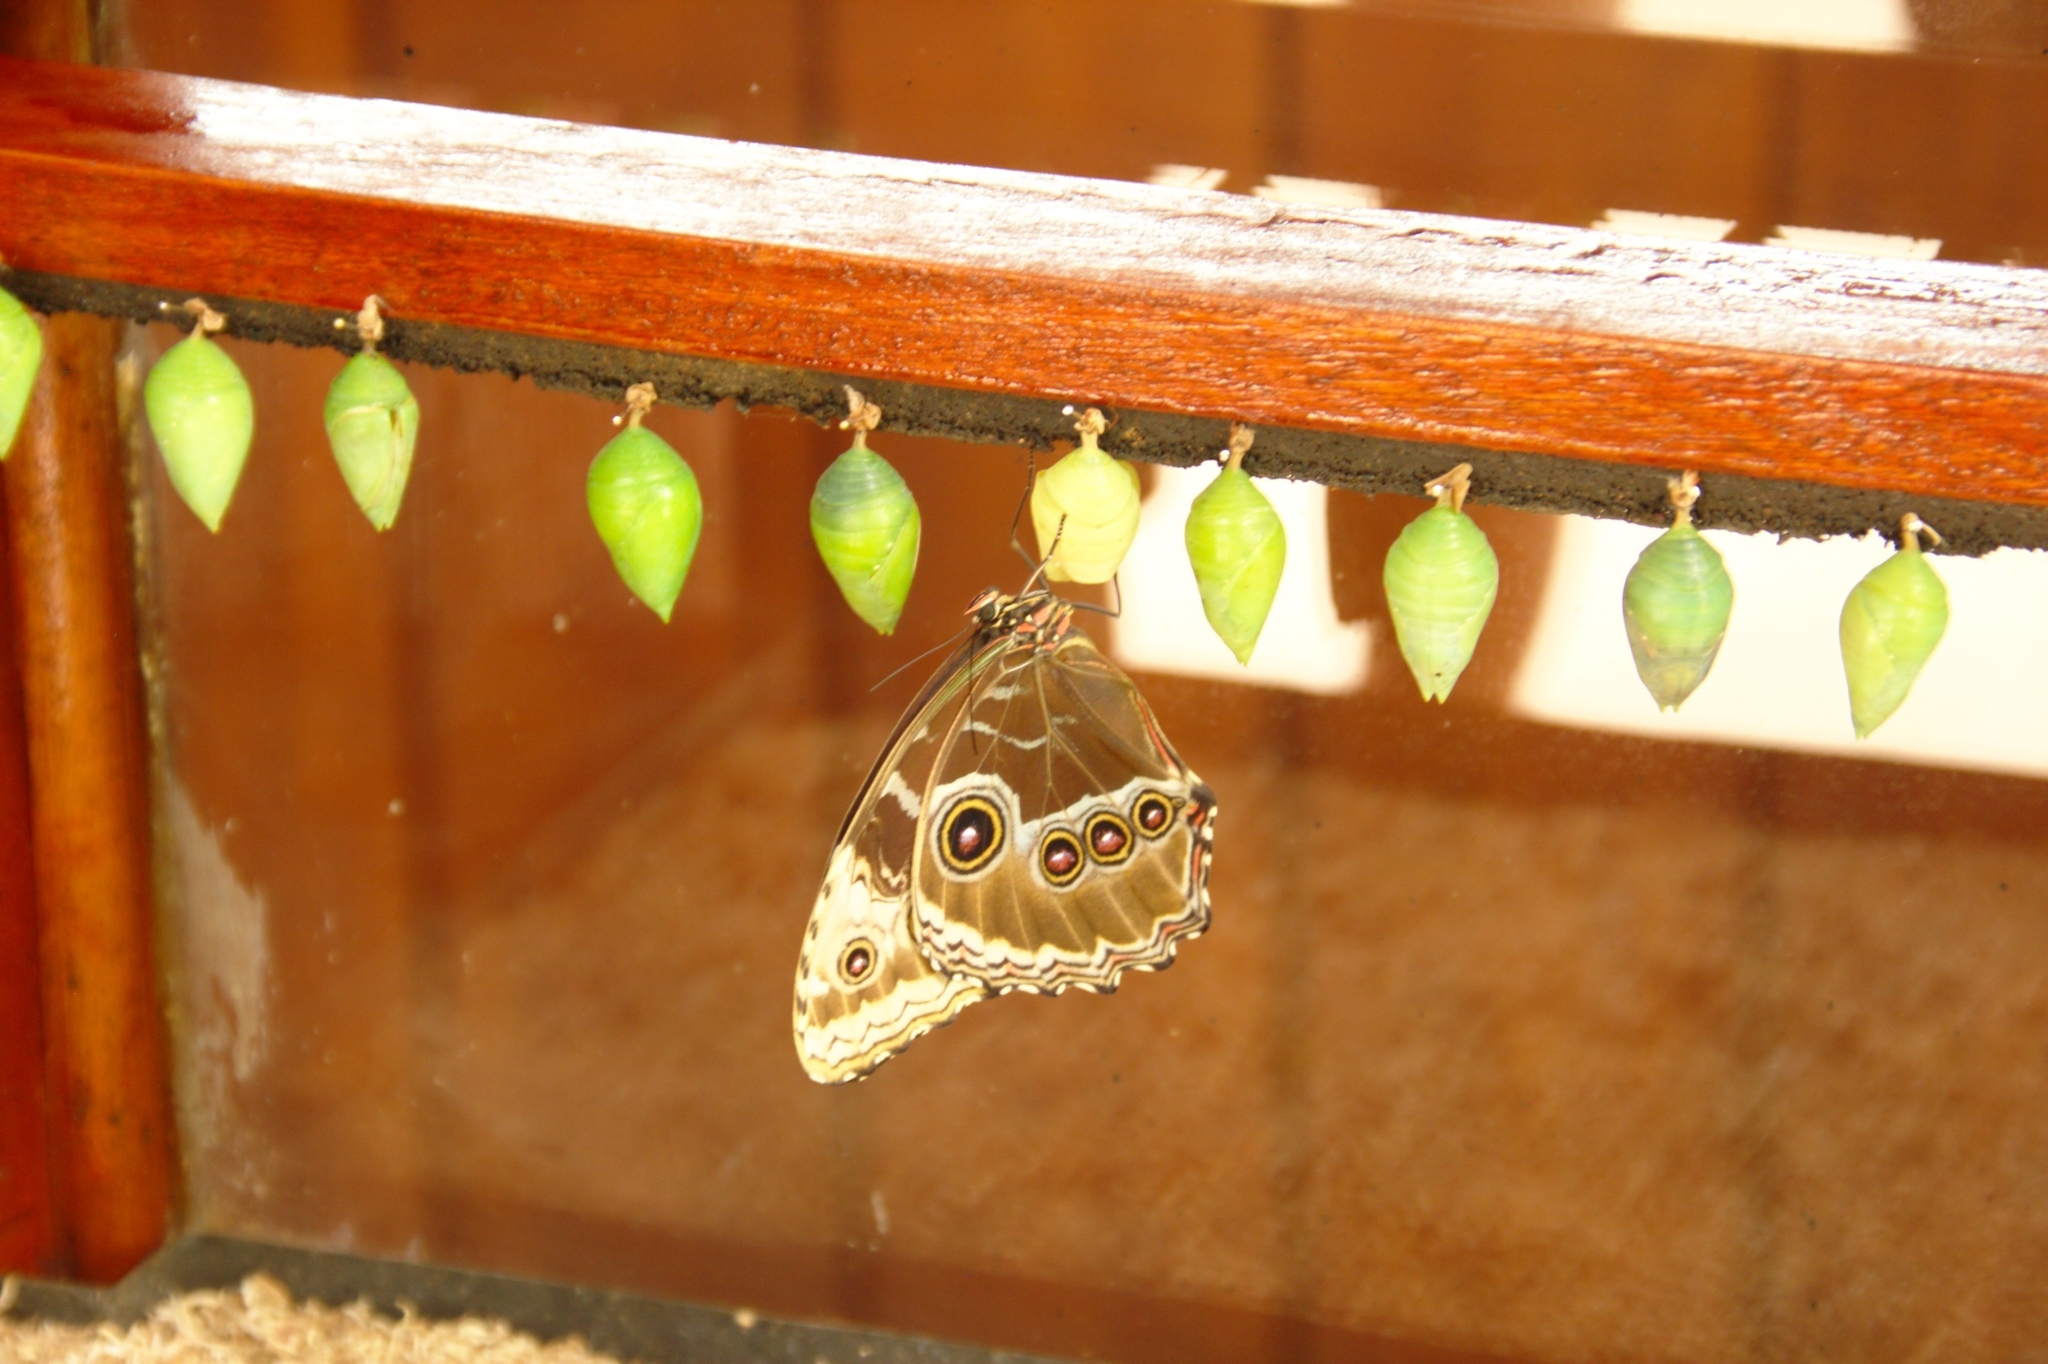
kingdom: Animalia
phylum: Arthropoda
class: Insecta
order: Lepidoptera
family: Nymphalidae
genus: Morpho
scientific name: Morpho helenor
